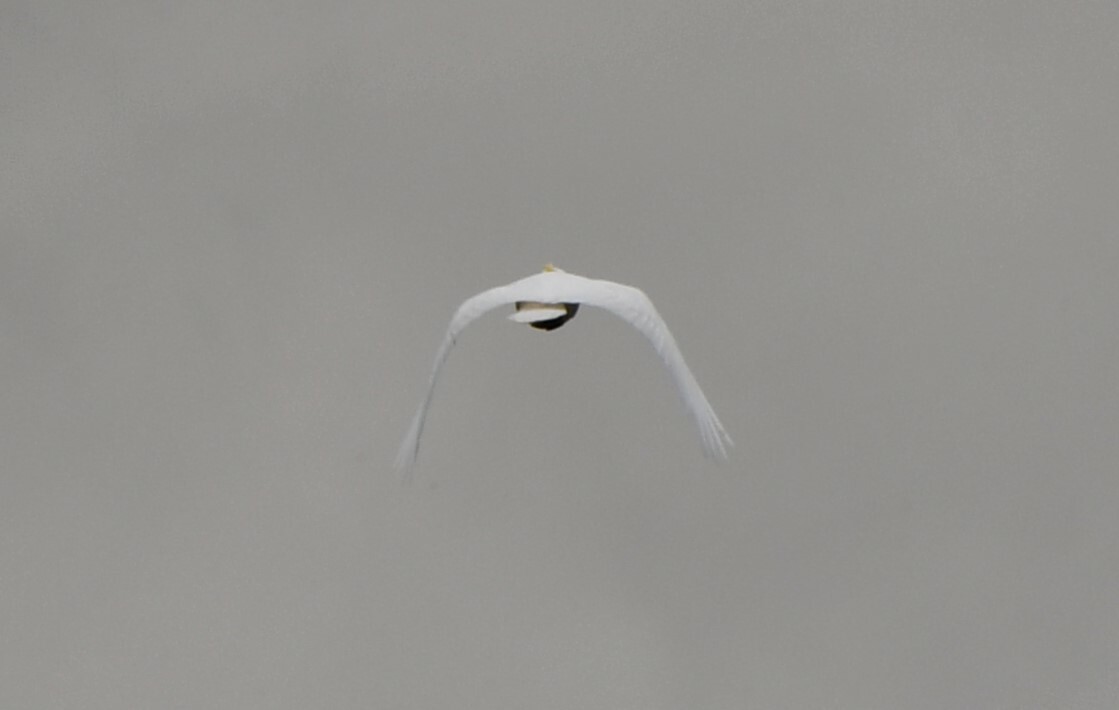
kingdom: Animalia
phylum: Chordata
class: Aves
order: Psittaciformes
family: Psittacidae
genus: Cacatua
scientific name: Cacatua galerita
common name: Sulphur-crested cockatoo
